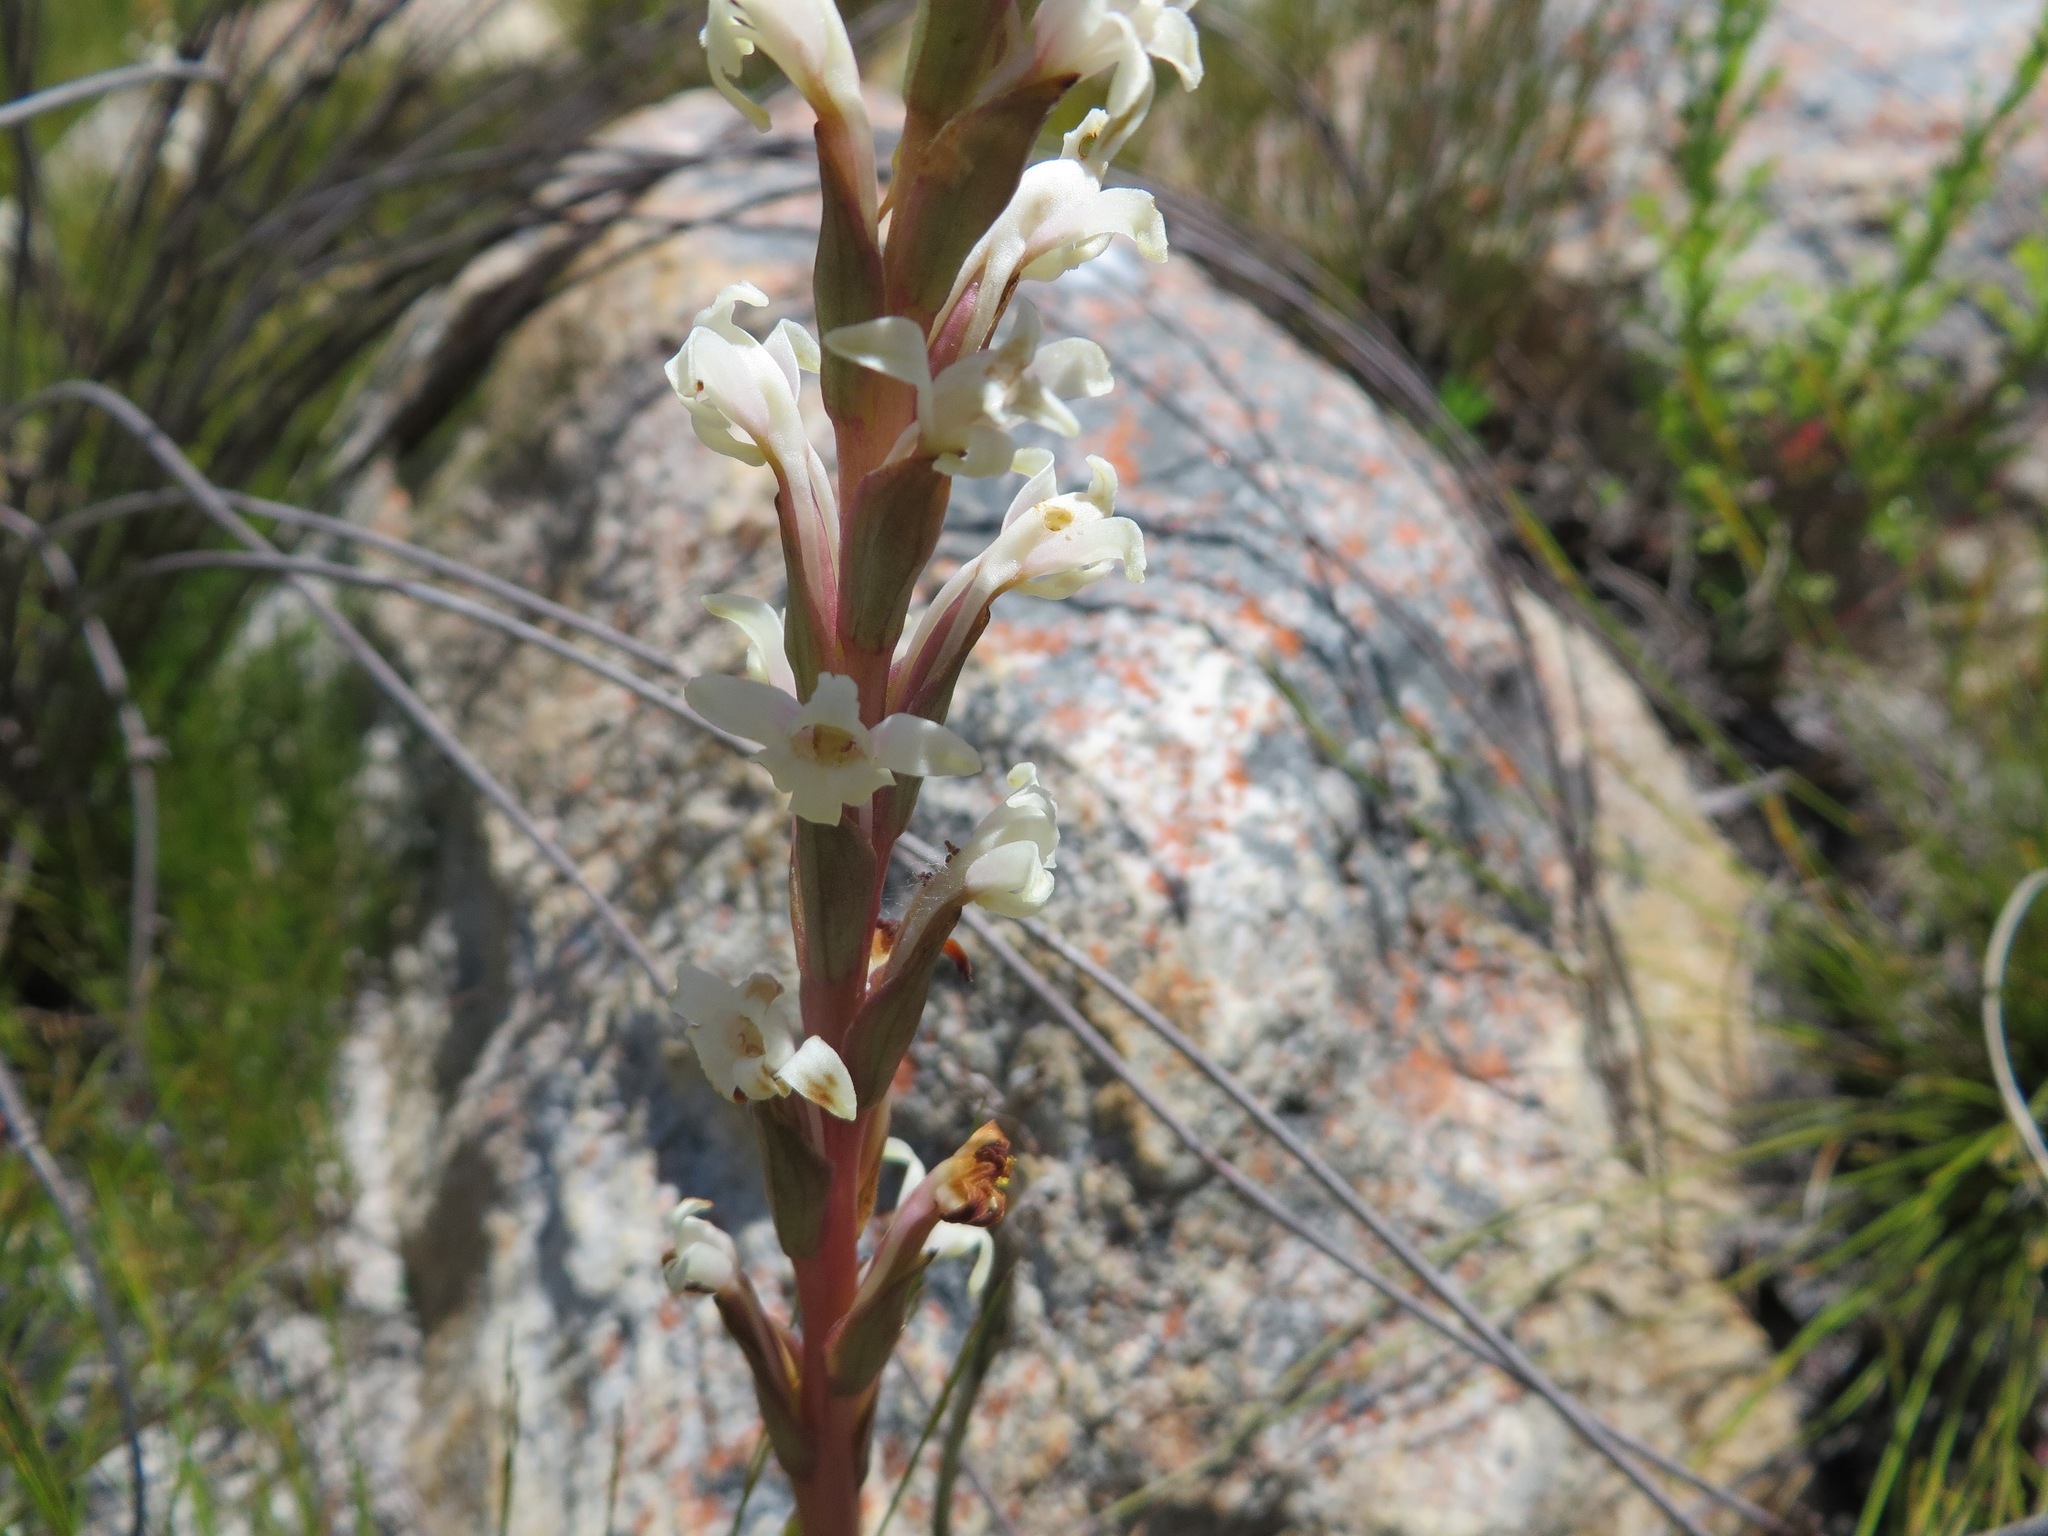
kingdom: Plantae
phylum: Tracheophyta
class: Liliopsida
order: Asparagales
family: Orchidaceae
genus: Satyrium
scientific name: Satyrium stenopetalum
